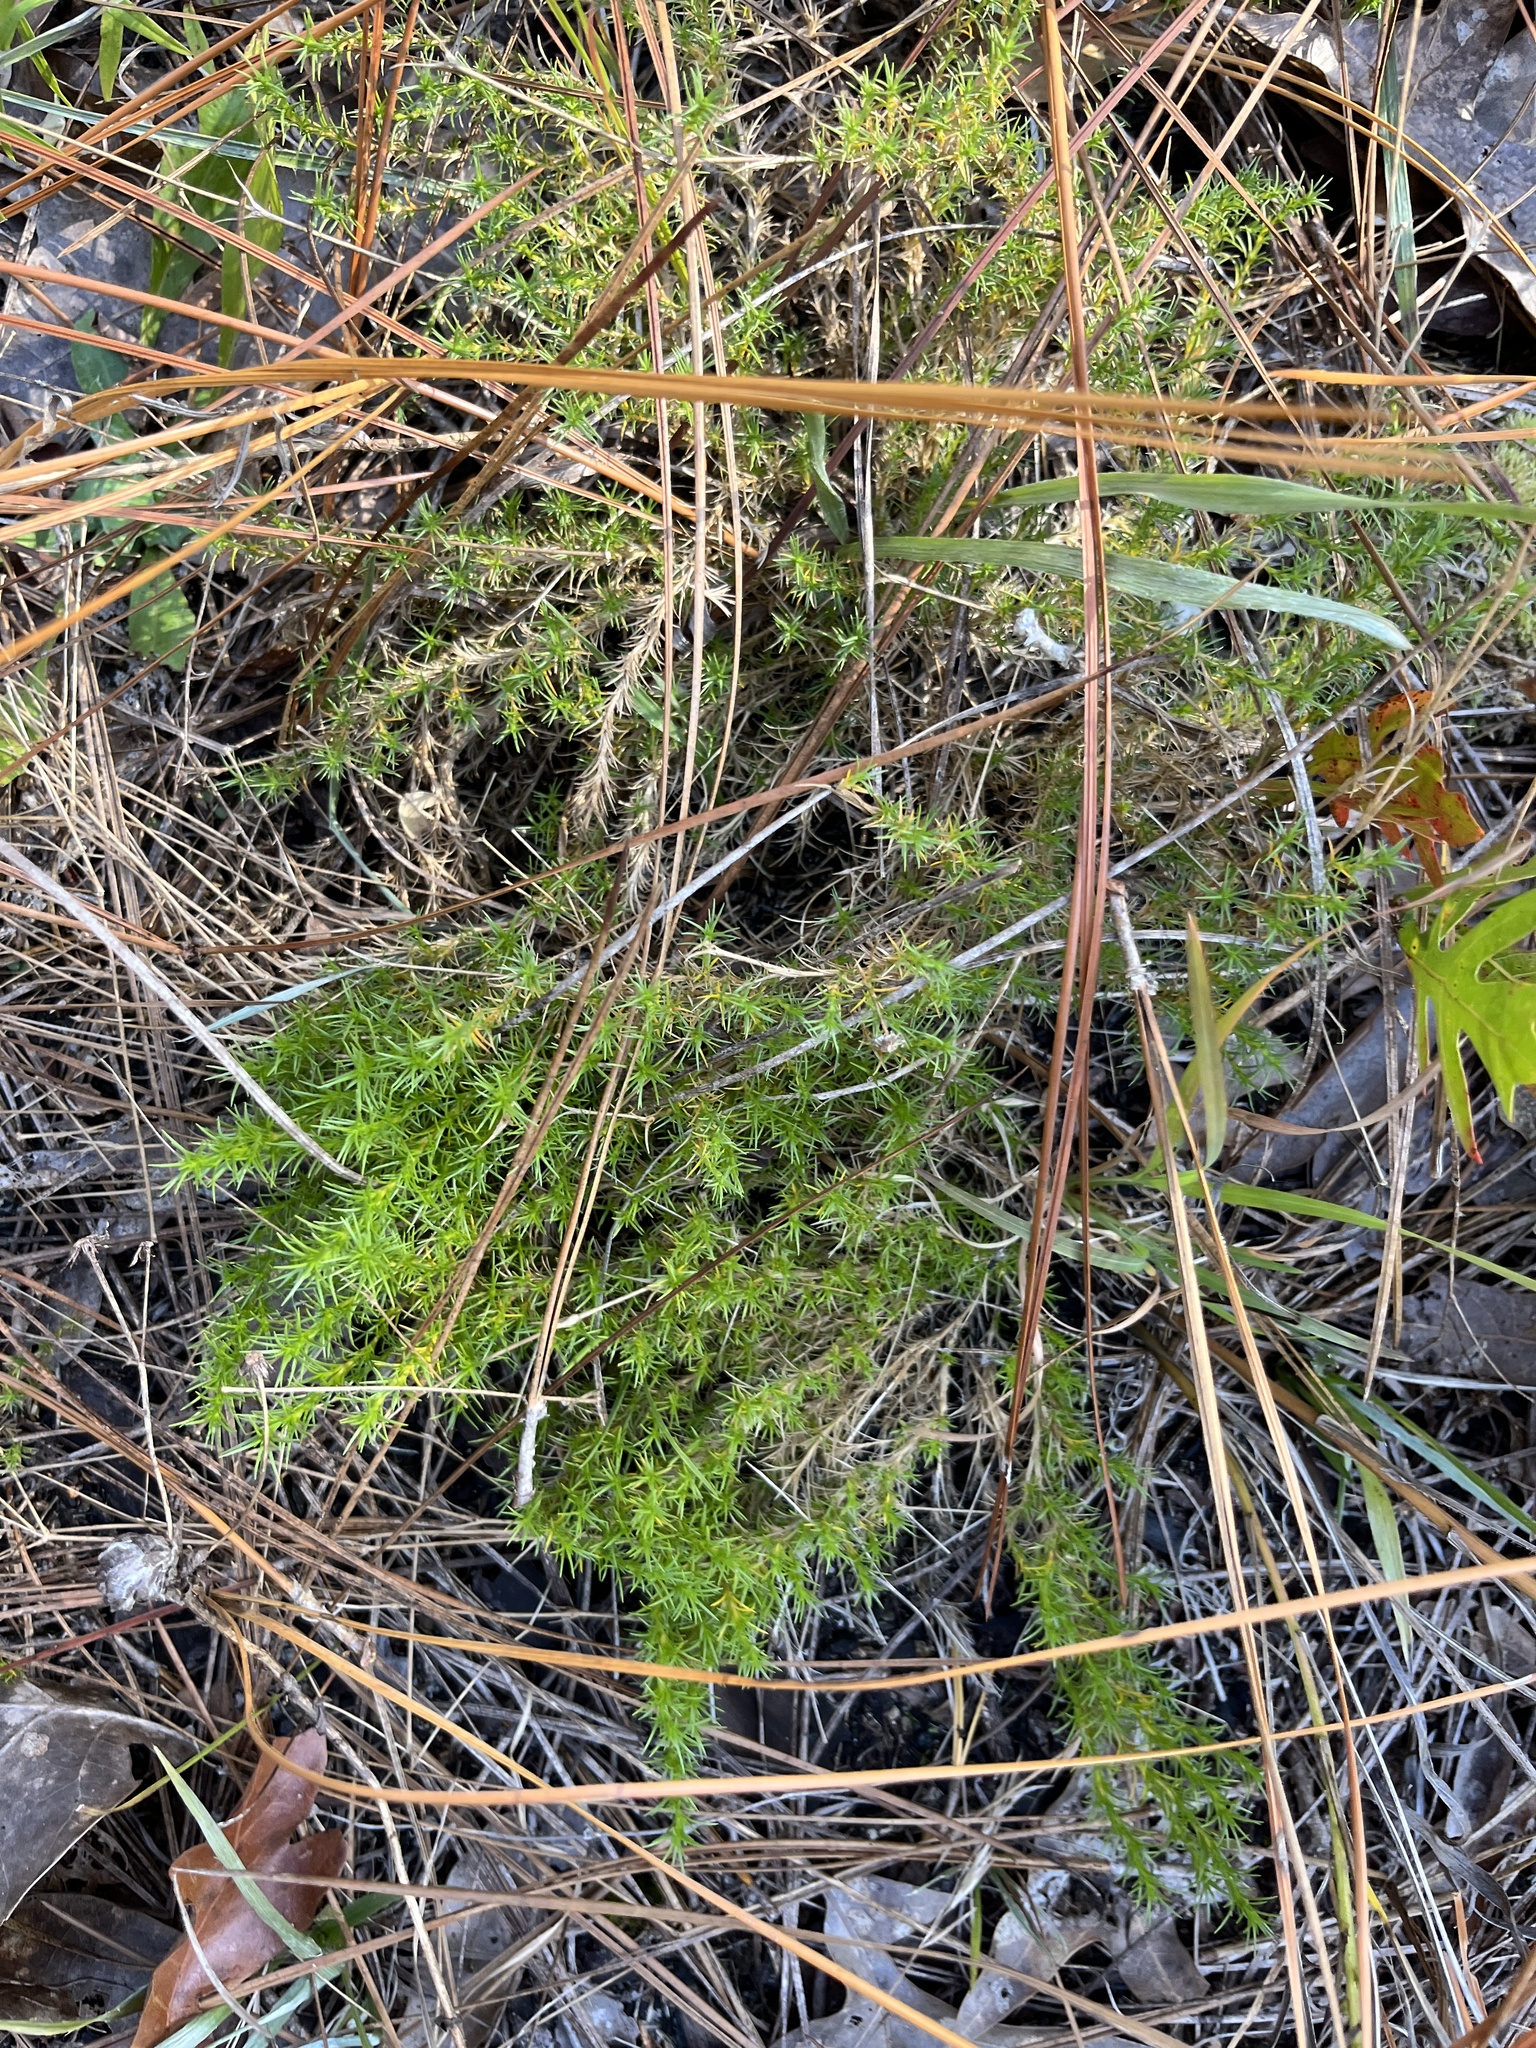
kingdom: Plantae
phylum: Tracheophyta
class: Magnoliopsida
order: Ericales
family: Polemoniaceae
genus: Phlox
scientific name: Phlox nivalis
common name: Trailing phlox
